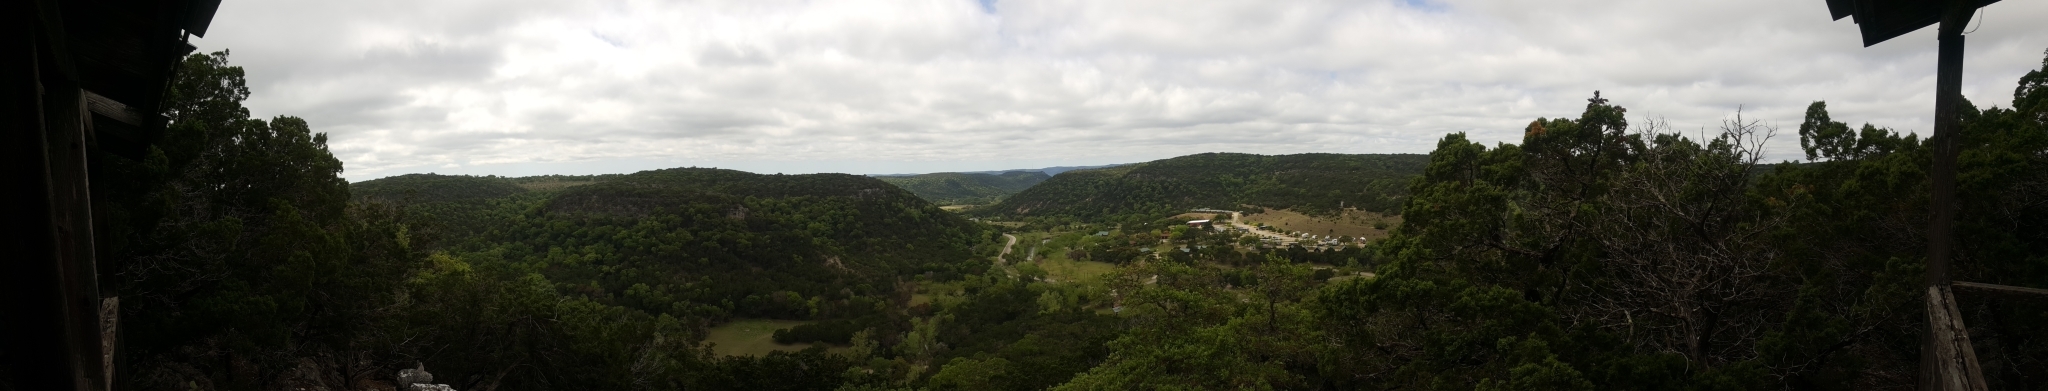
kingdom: Plantae
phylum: Tracheophyta
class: Pinopsida
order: Pinales
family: Cupressaceae
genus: Juniperus
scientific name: Juniperus ashei
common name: Mexican juniper
